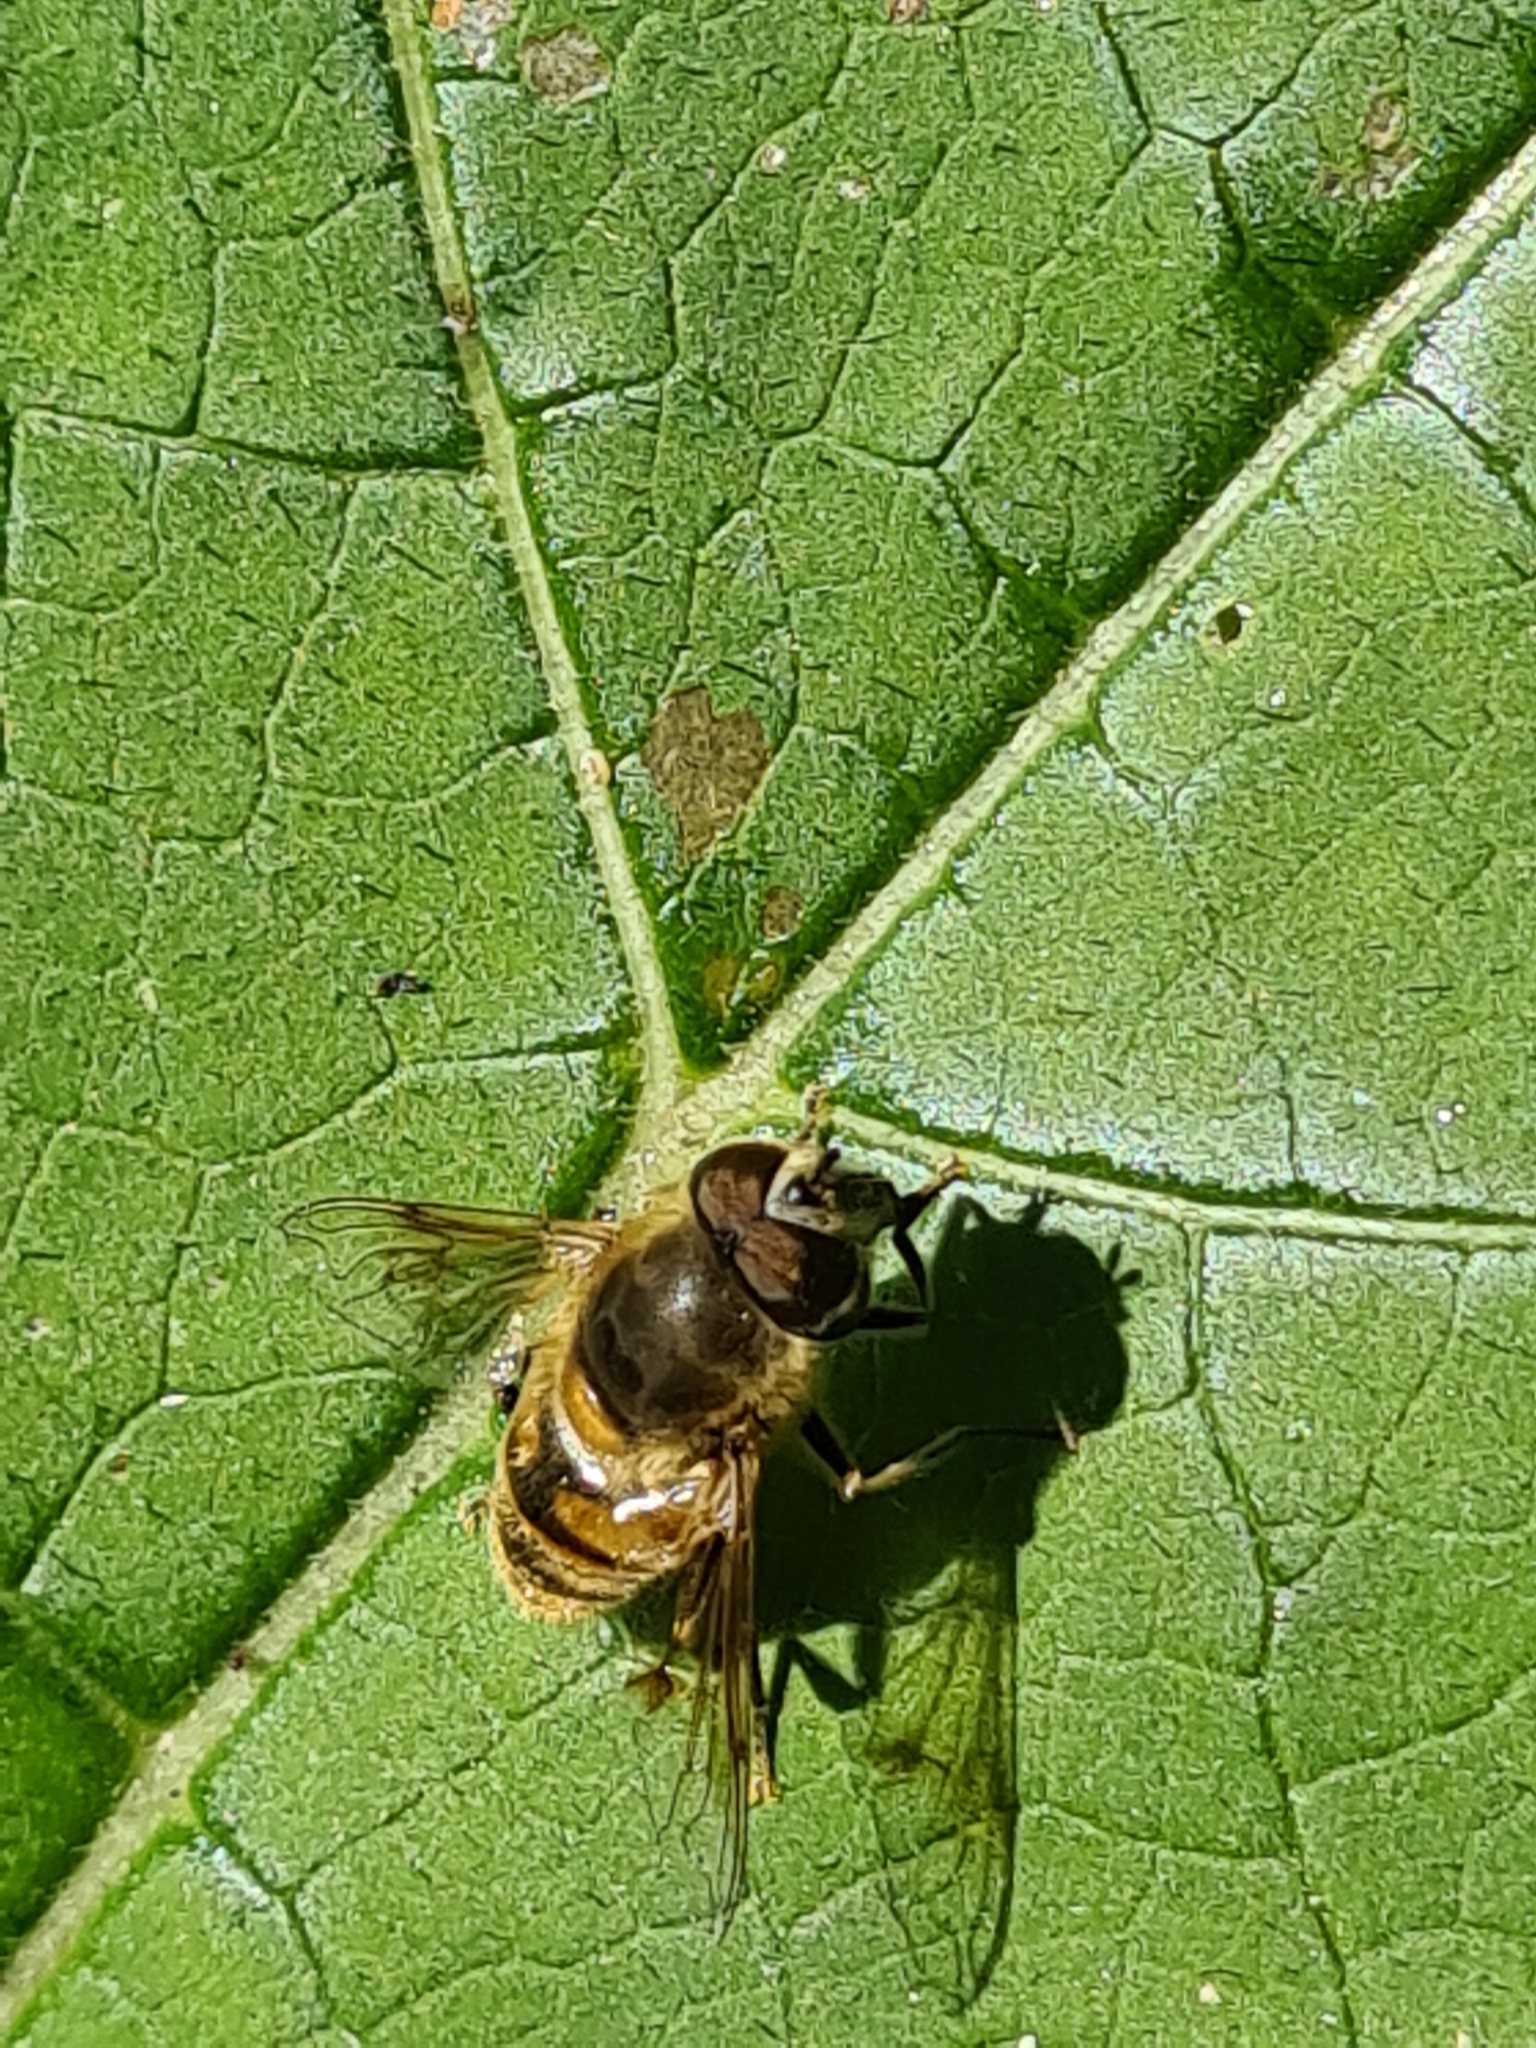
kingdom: Animalia
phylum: Arthropoda
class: Insecta
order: Diptera
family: Syrphidae
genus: Eristalis
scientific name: Eristalis tenax
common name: Drone fly
